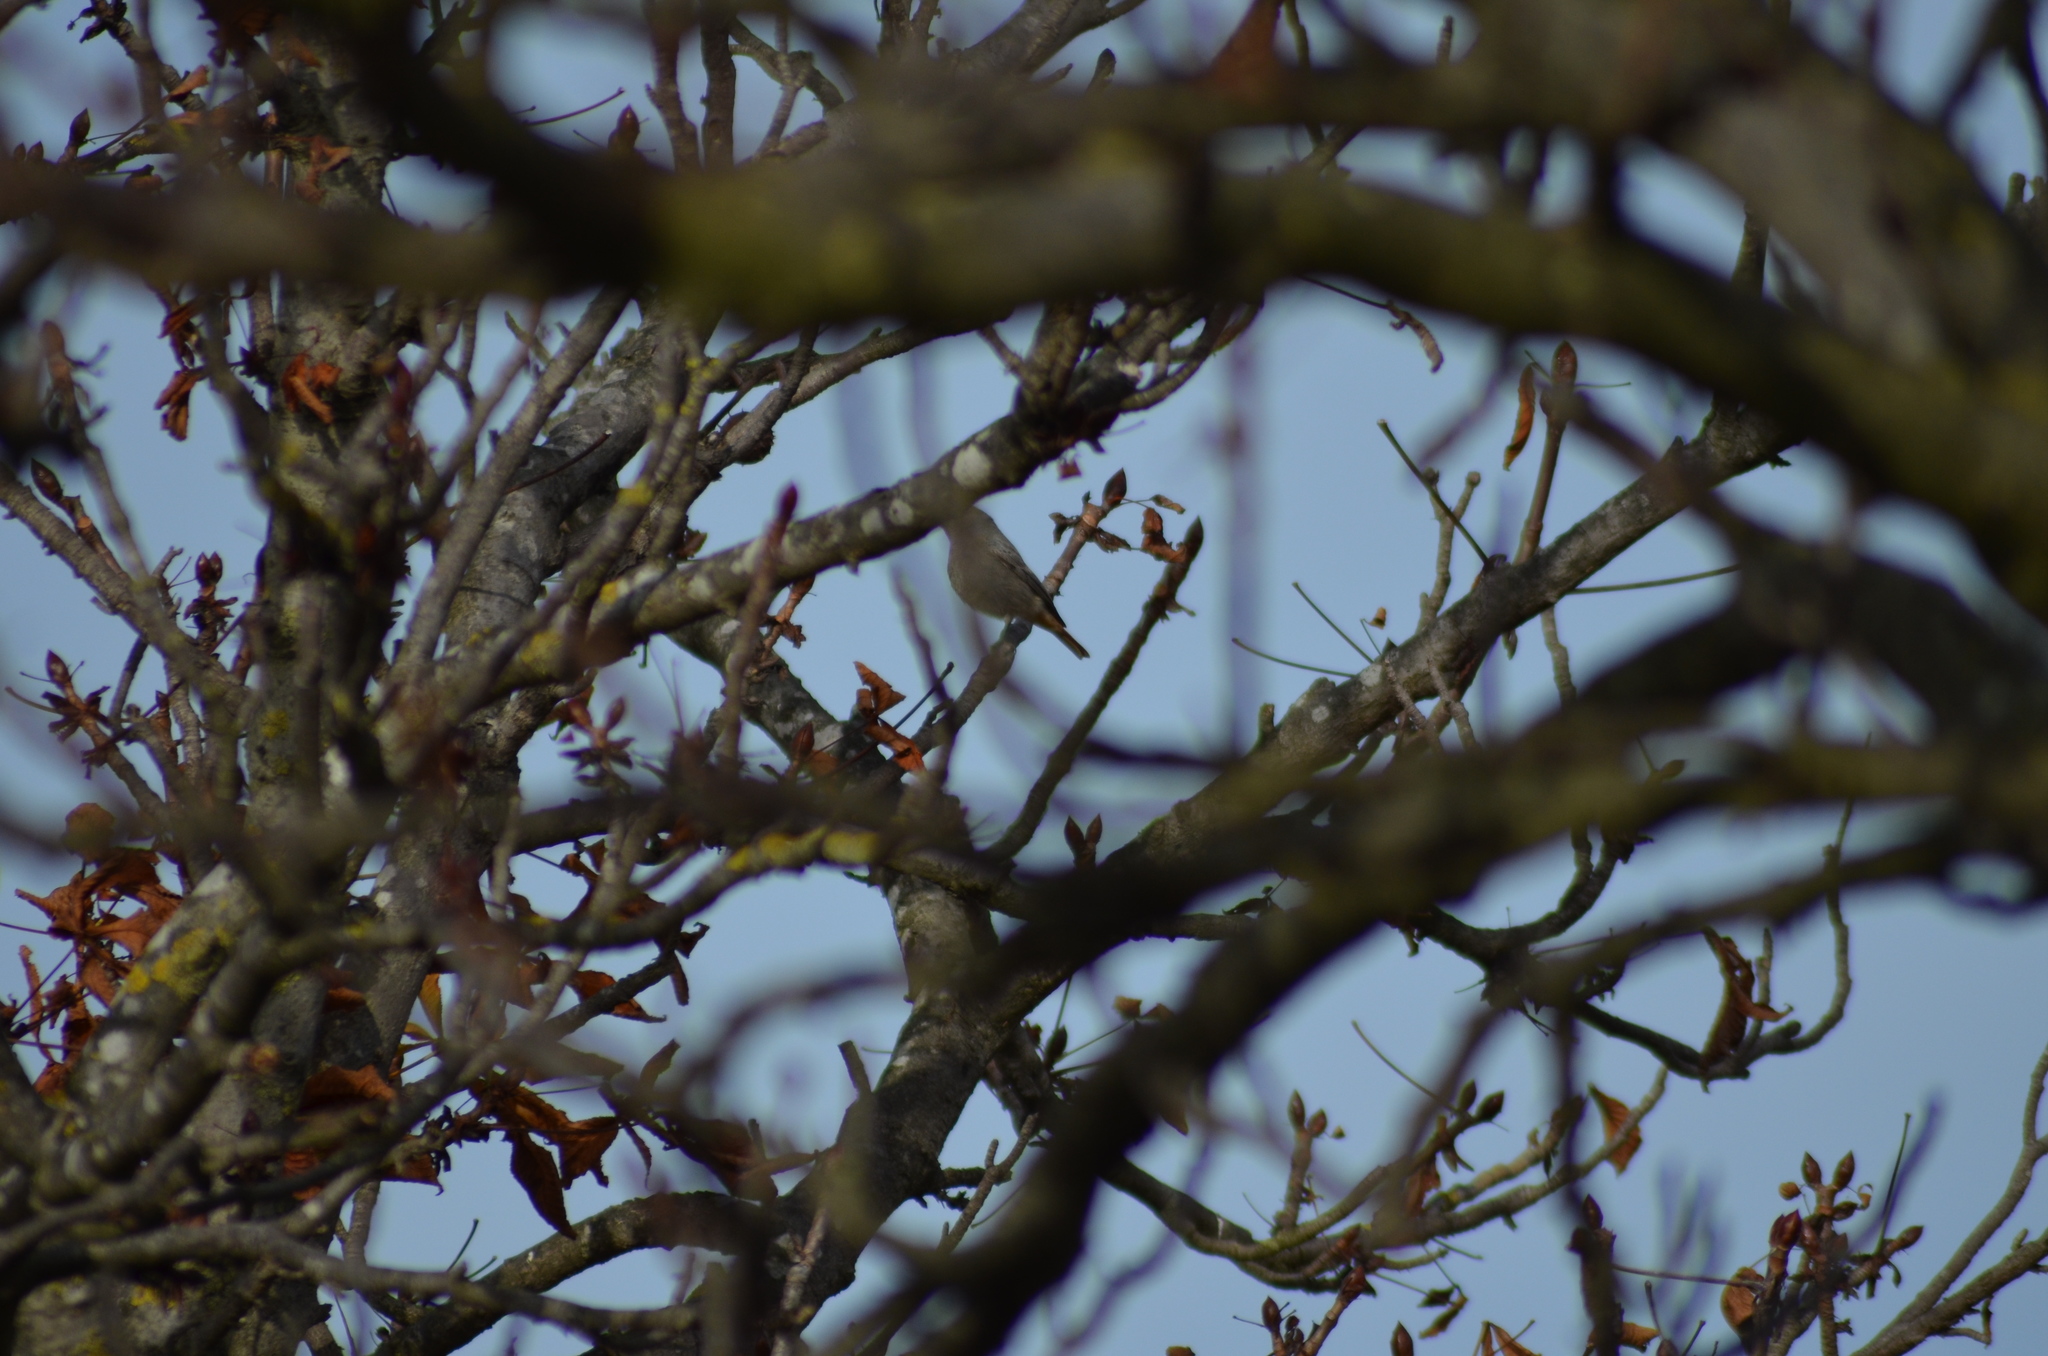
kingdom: Animalia
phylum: Chordata
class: Aves
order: Passeriformes
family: Muscicapidae
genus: Phoenicurus
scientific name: Phoenicurus ochruros
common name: Black redstart
